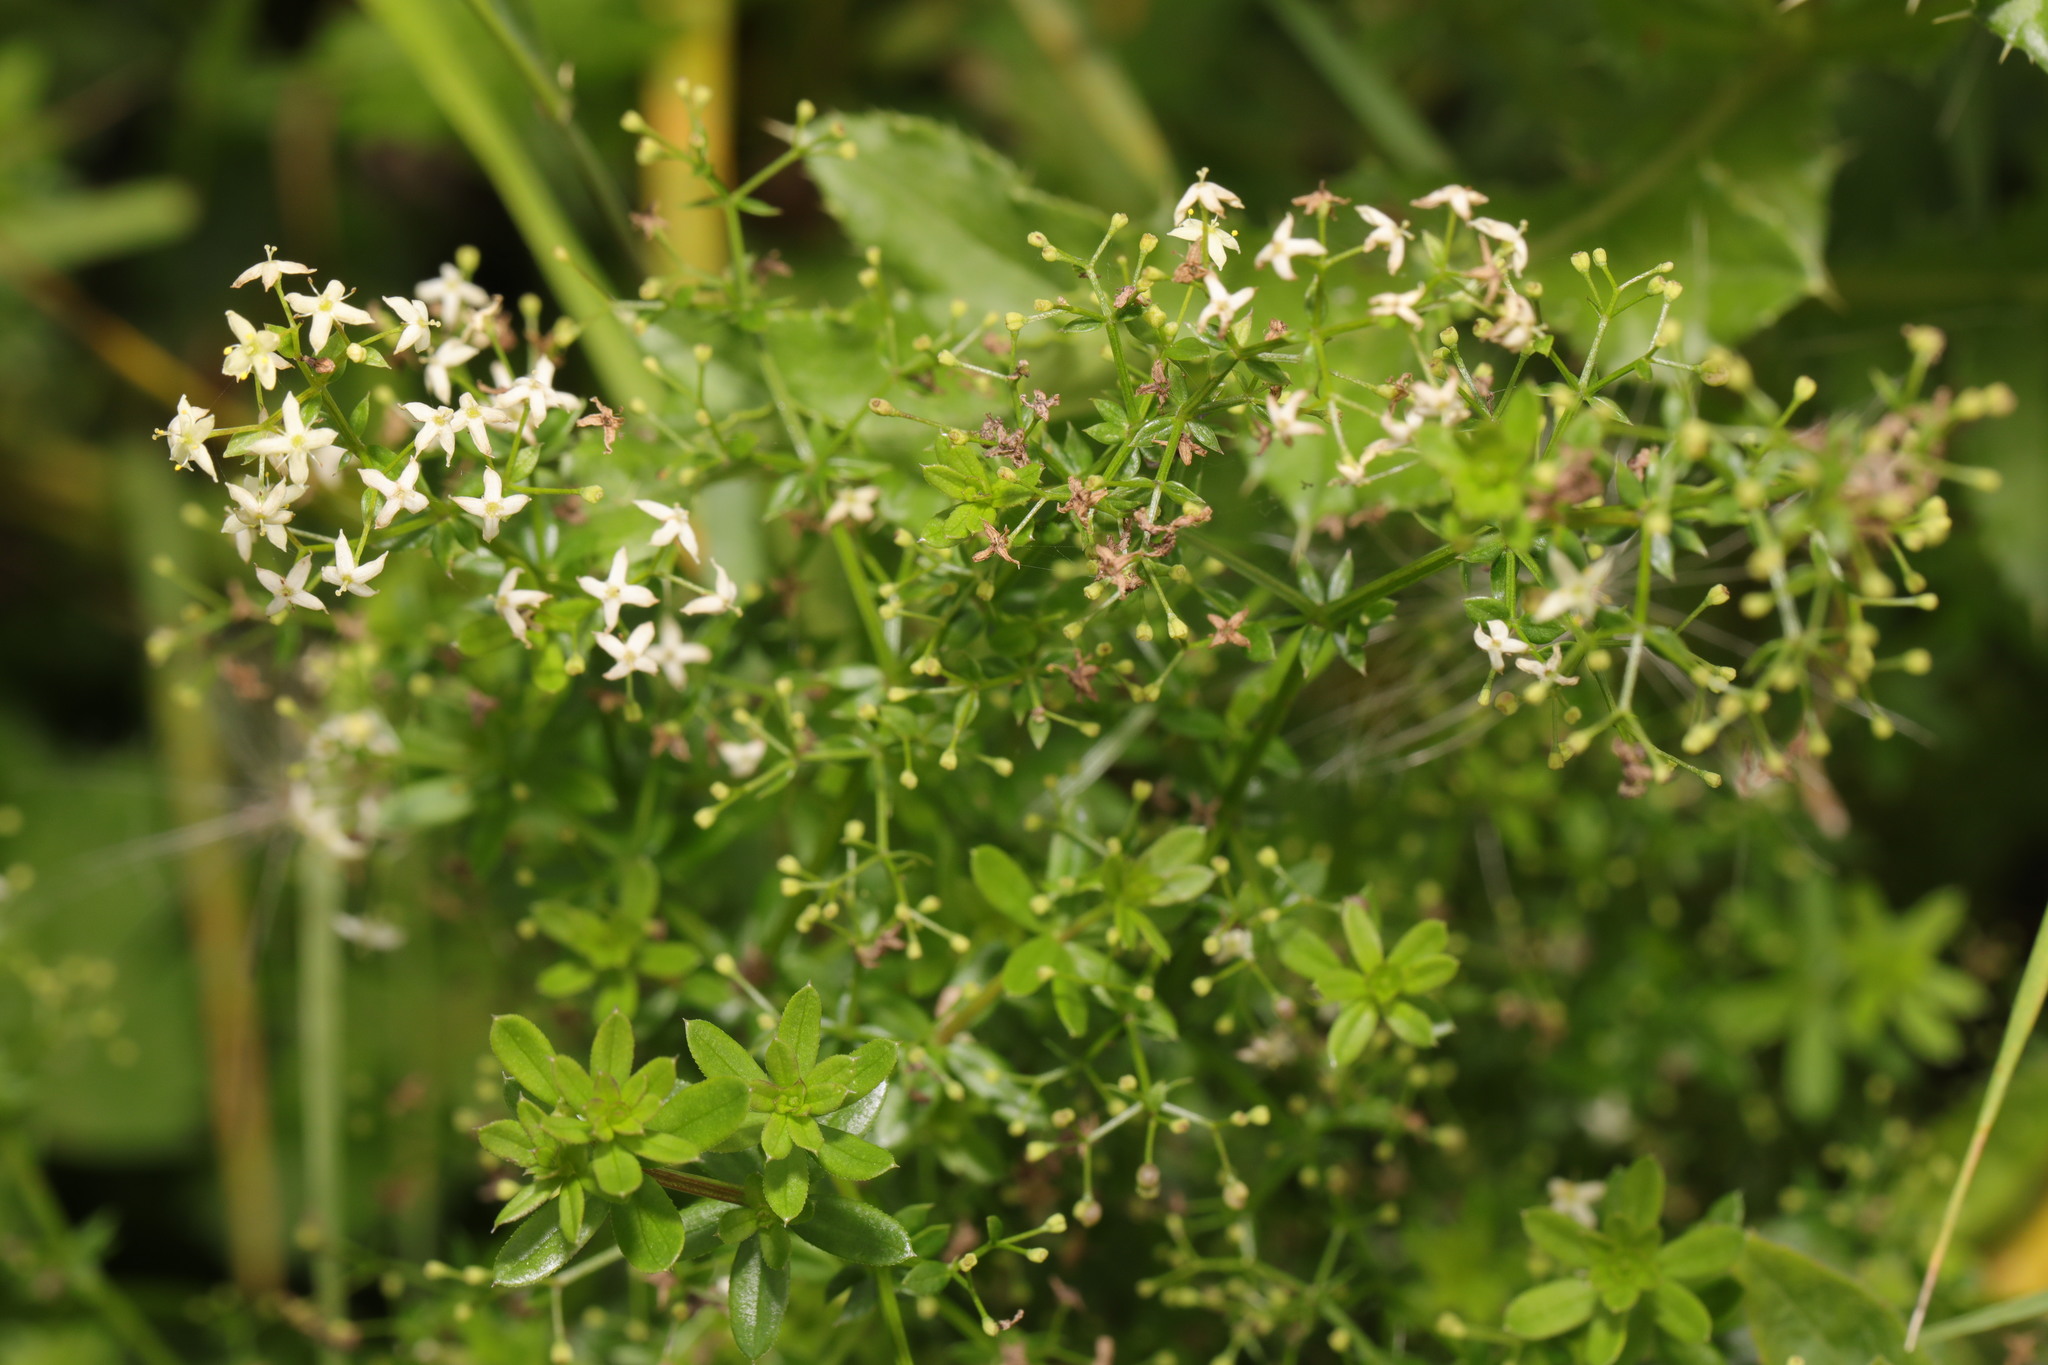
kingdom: Plantae
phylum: Tracheophyta
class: Magnoliopsida
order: Gentianales
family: Rubiaceae
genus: Galium
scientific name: Galium mollugo
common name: Hedge bedstraw
